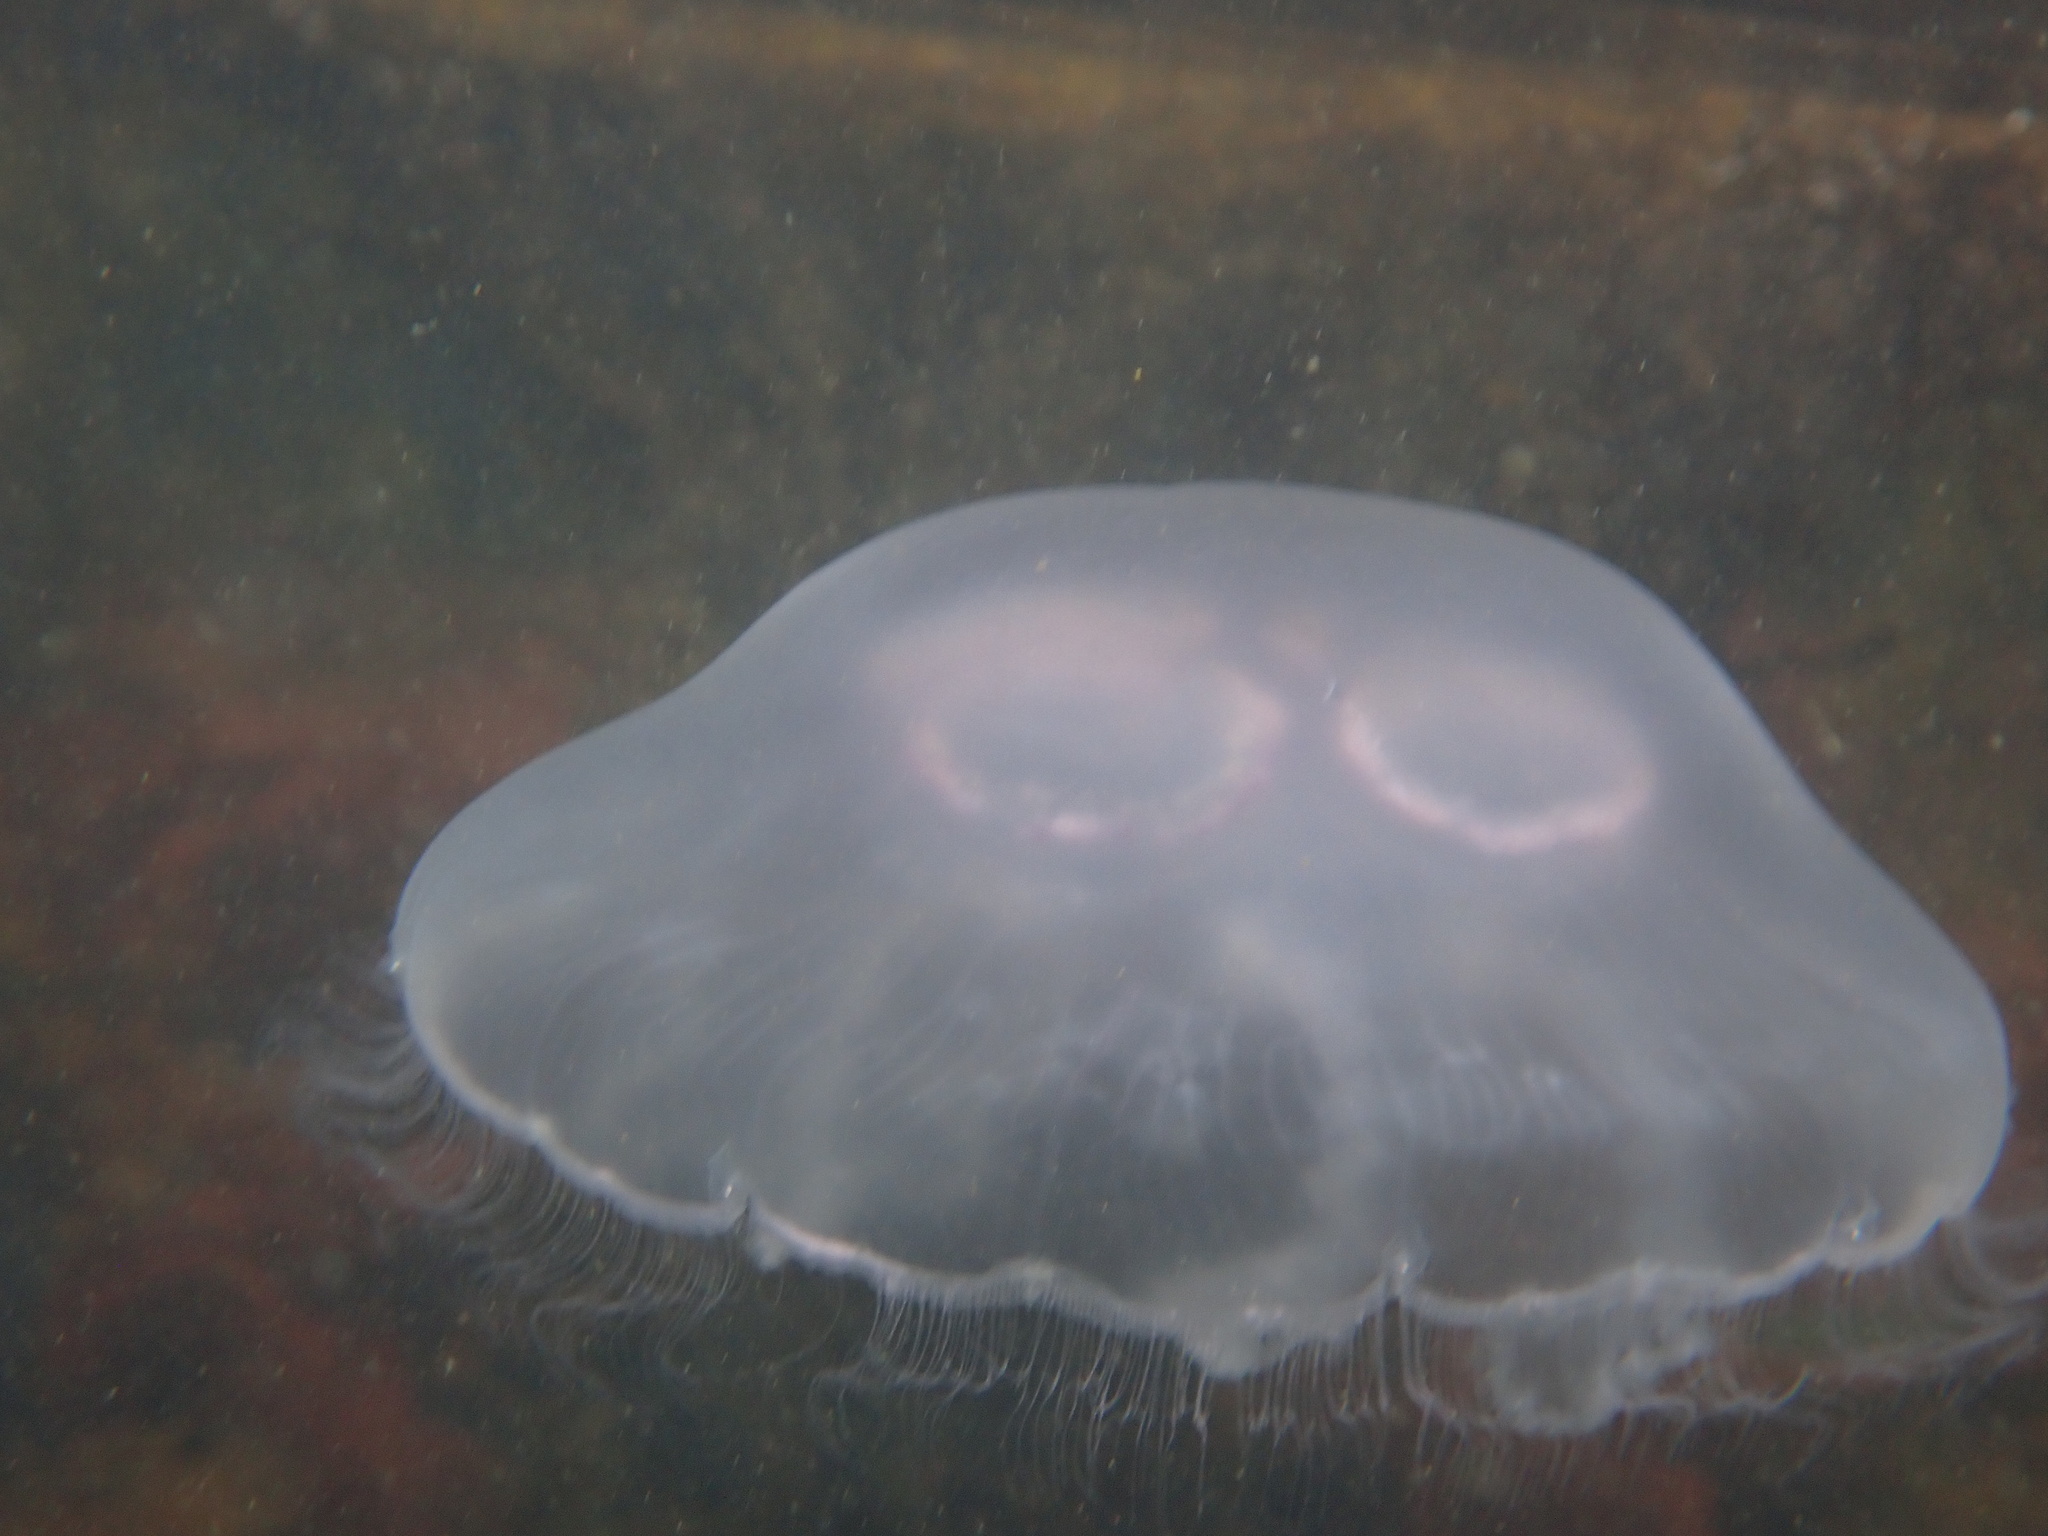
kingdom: Animalia
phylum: Cnidaria
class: Scyphozoa
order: Semaeostomeae
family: Ulmaridae
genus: Aurelia
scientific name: Aurelia aurita
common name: Moon jellyfish
